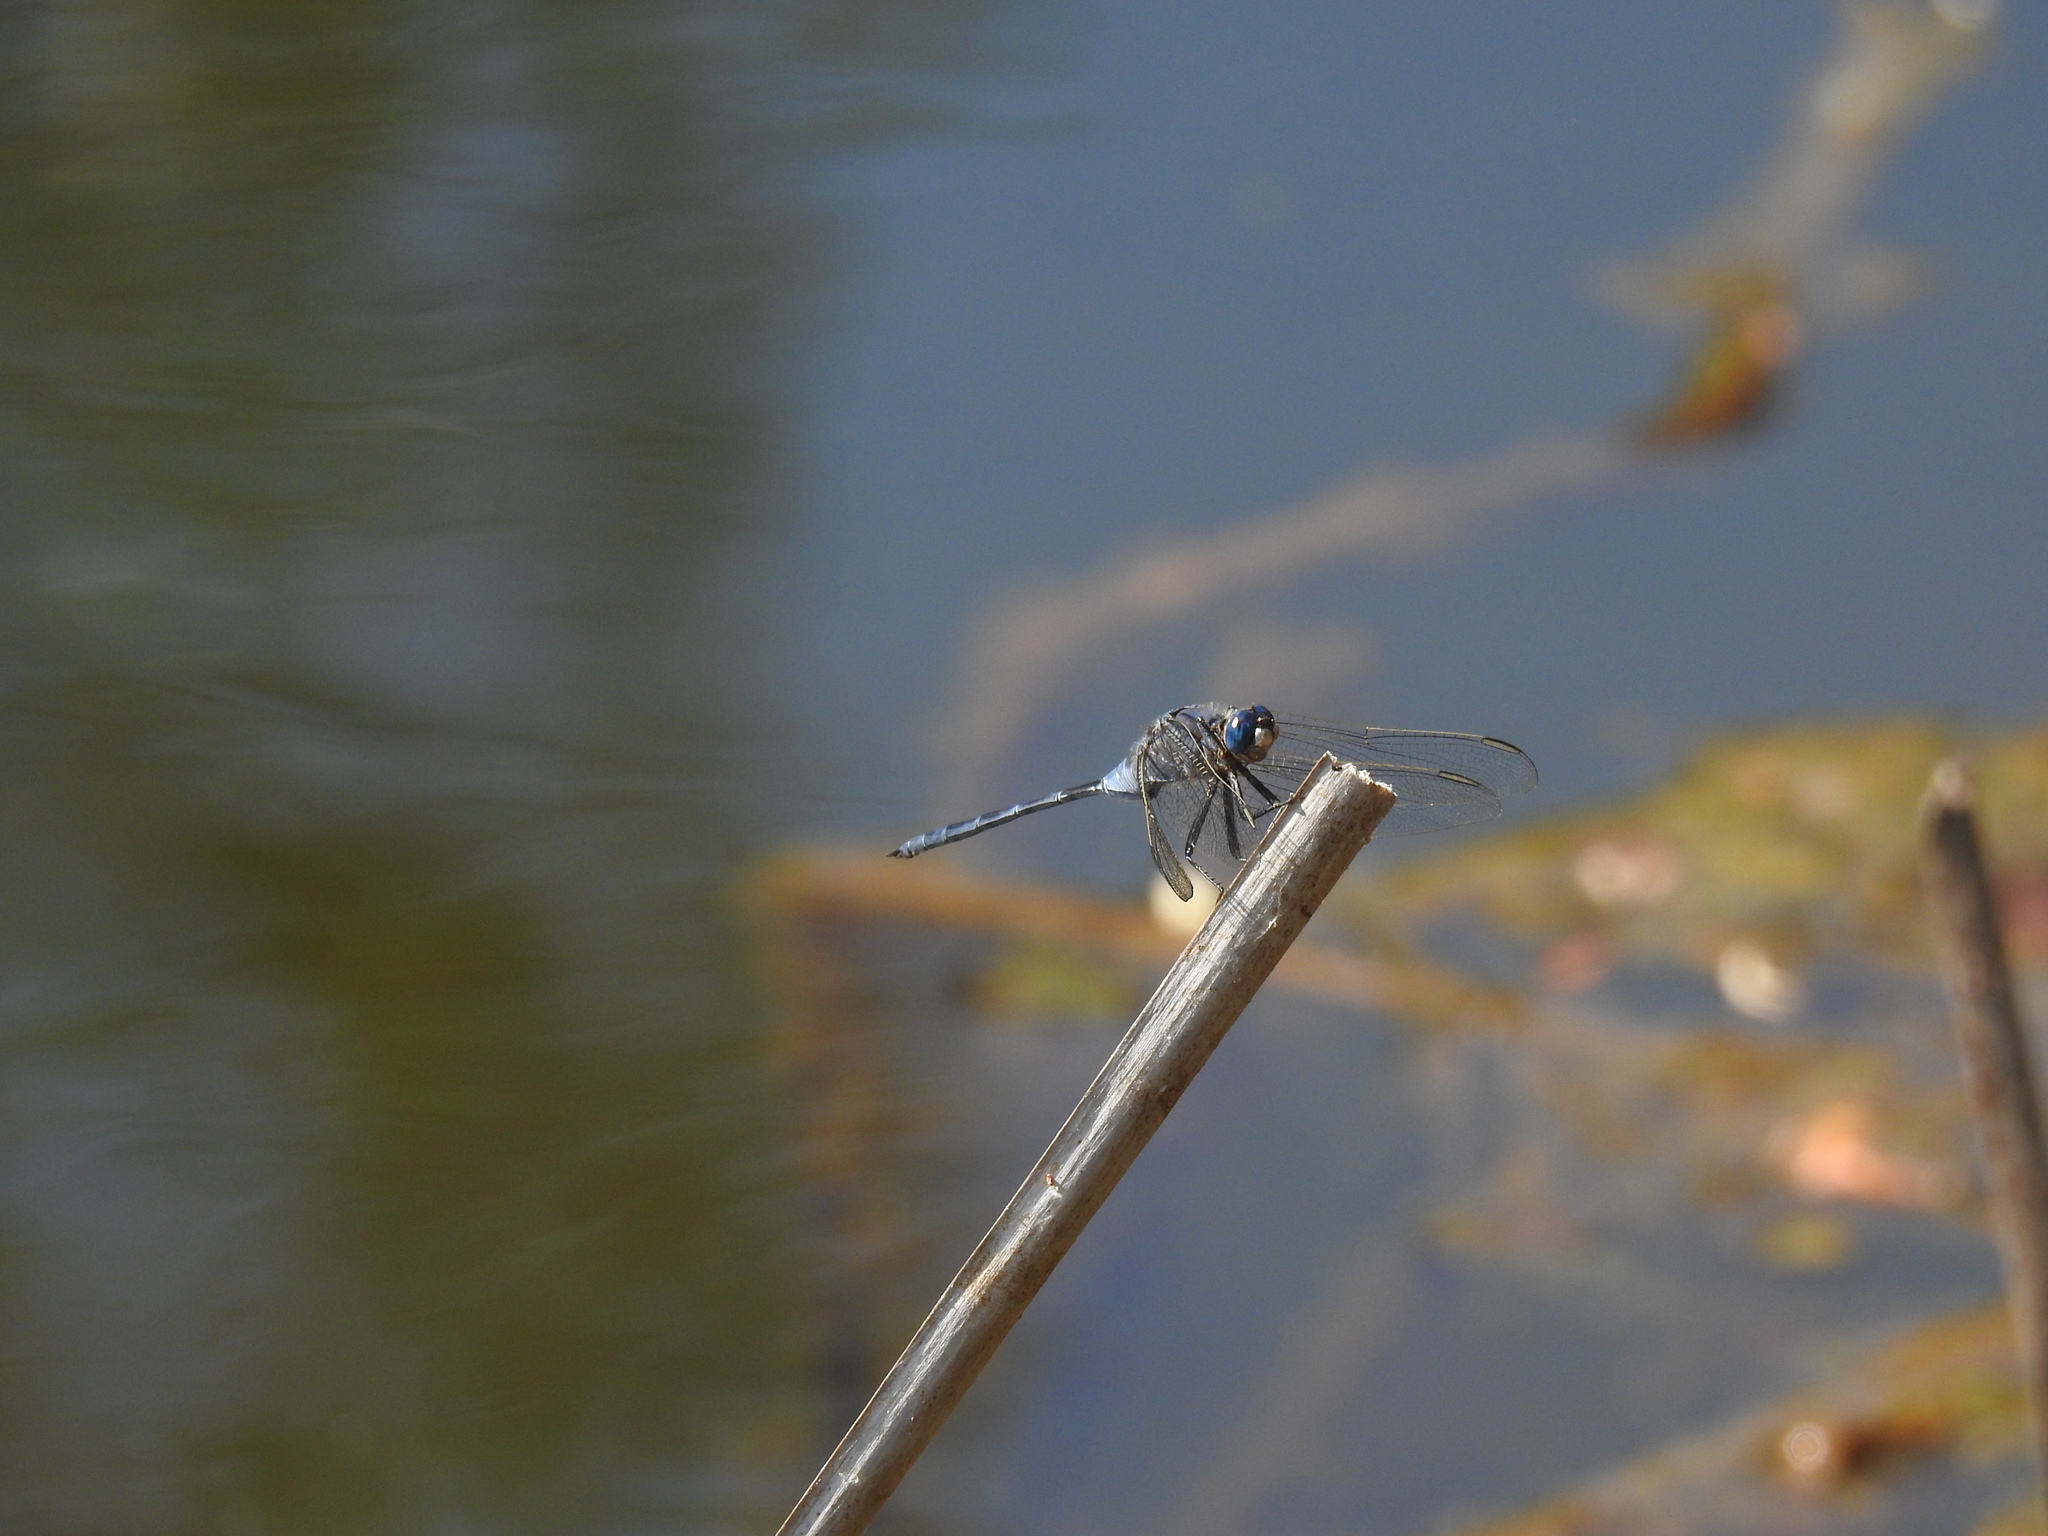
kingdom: Animalia
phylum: Arthropoda
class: Insecta
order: Odonata
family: Libellulidae
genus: Orthetrum
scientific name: Orthetrum trinacria
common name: Long skimmer
